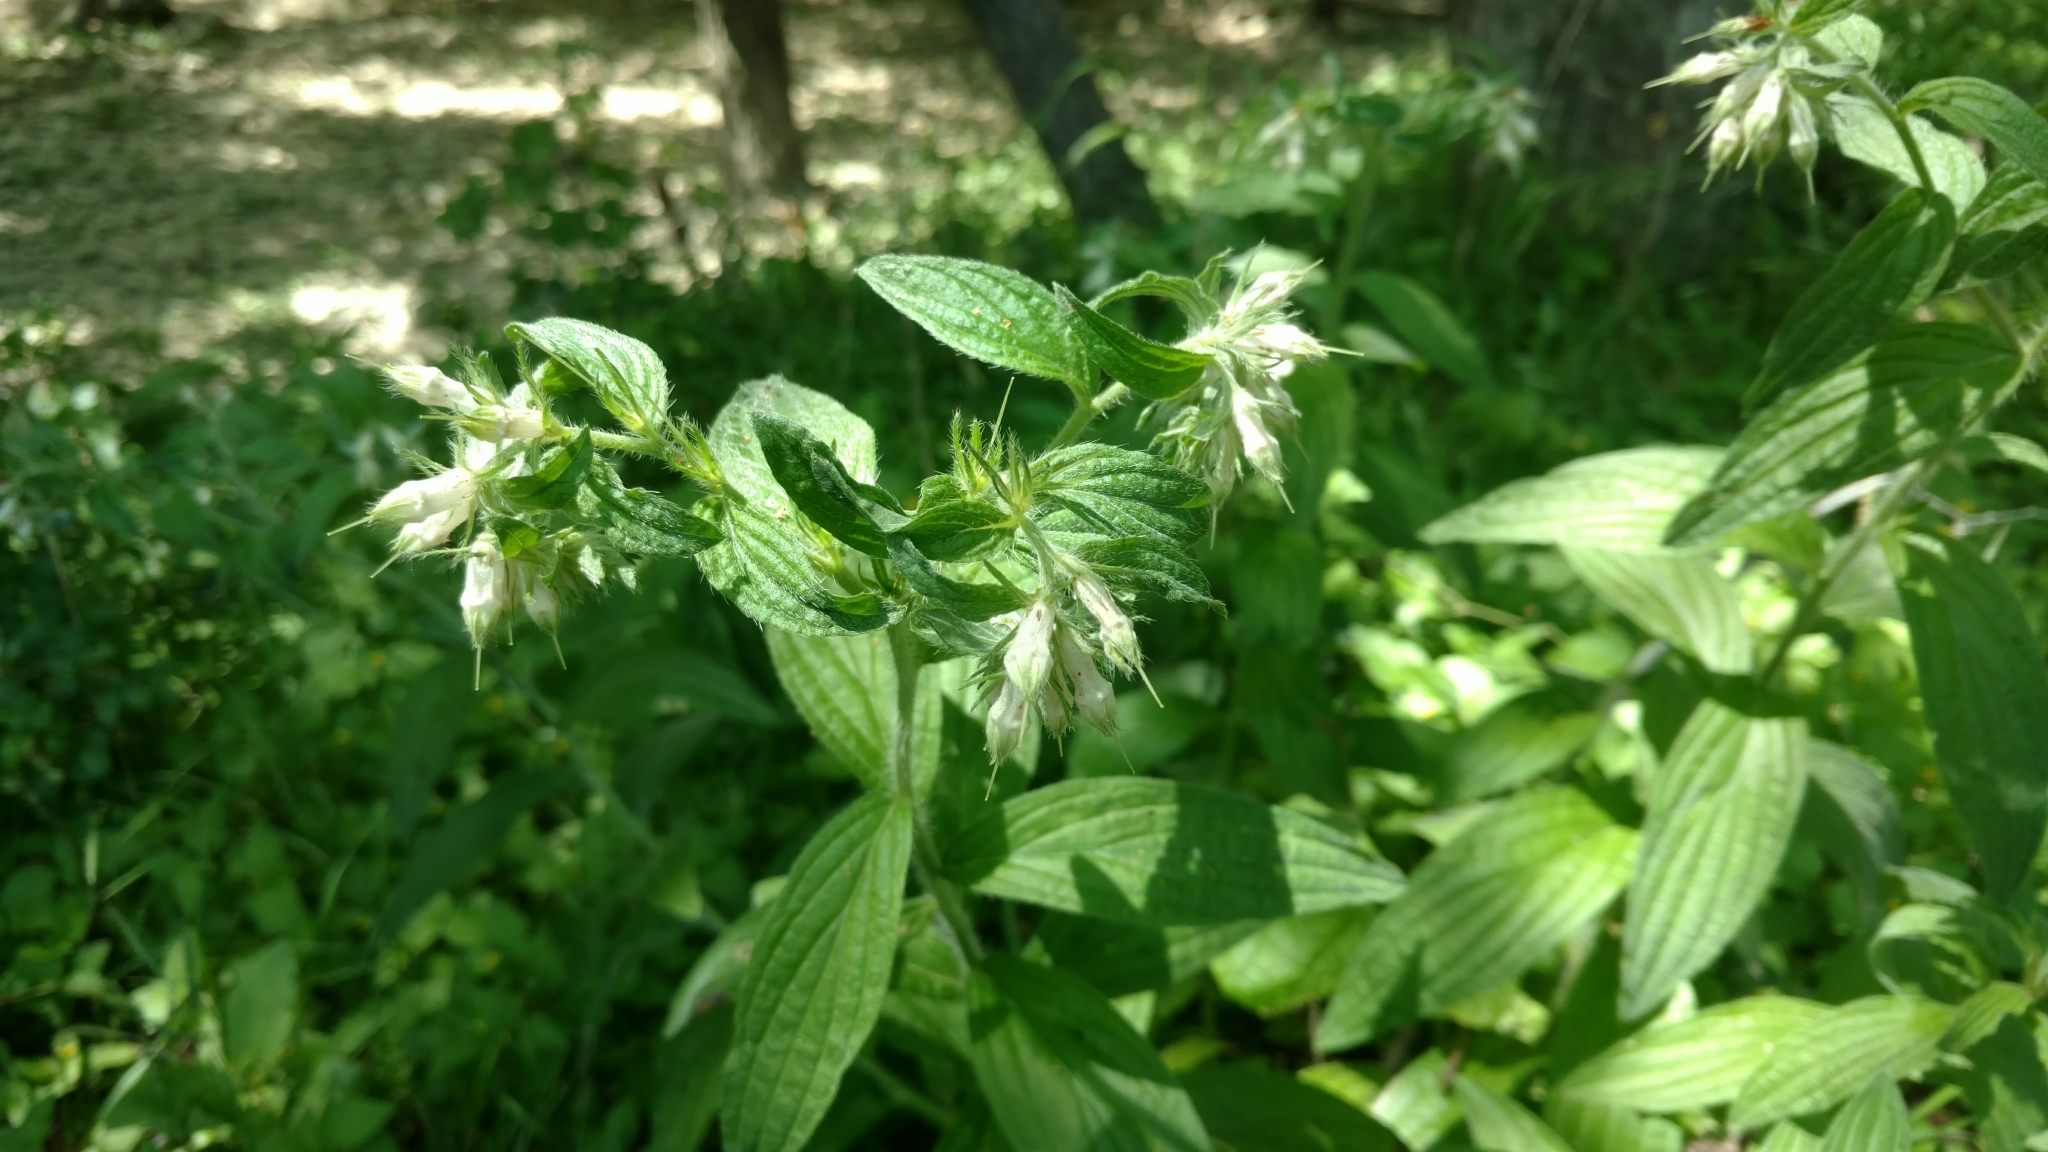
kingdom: Plantae
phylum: Tracheophyta
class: Magnoliopsida
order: Boraginales
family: Boraginaceae
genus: Lithospermum
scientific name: Lithospermum caroliniense
